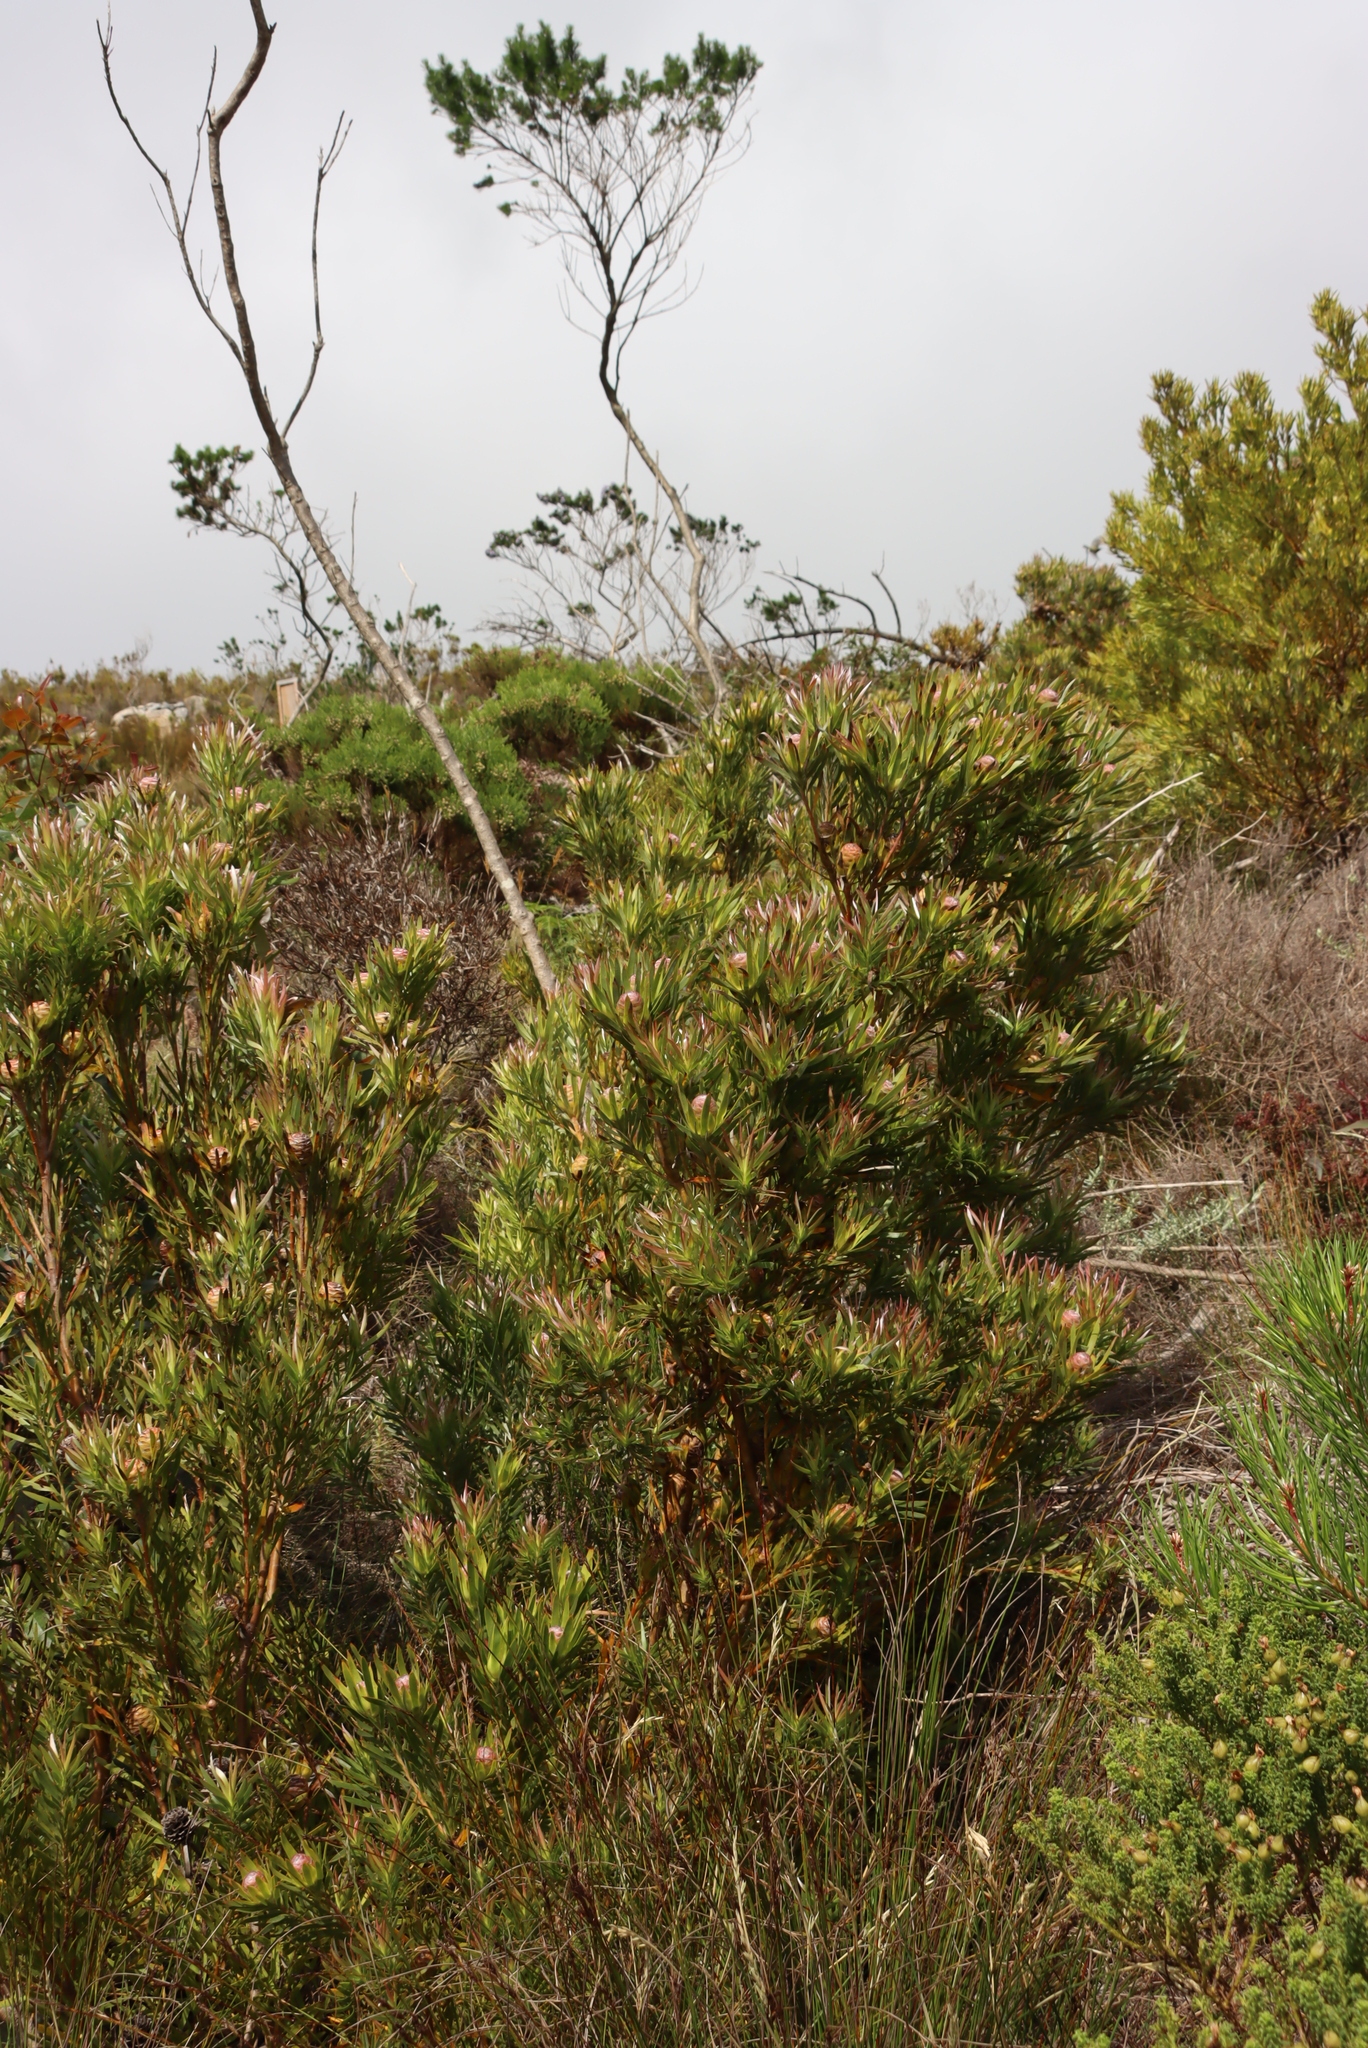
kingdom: Plantae
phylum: Tracheophyta
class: Magnoliopsida
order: Proteales
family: Proteaceae
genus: Leucadendron
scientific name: Leucadendron xanthoconus
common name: Sickle-leaf conebush
